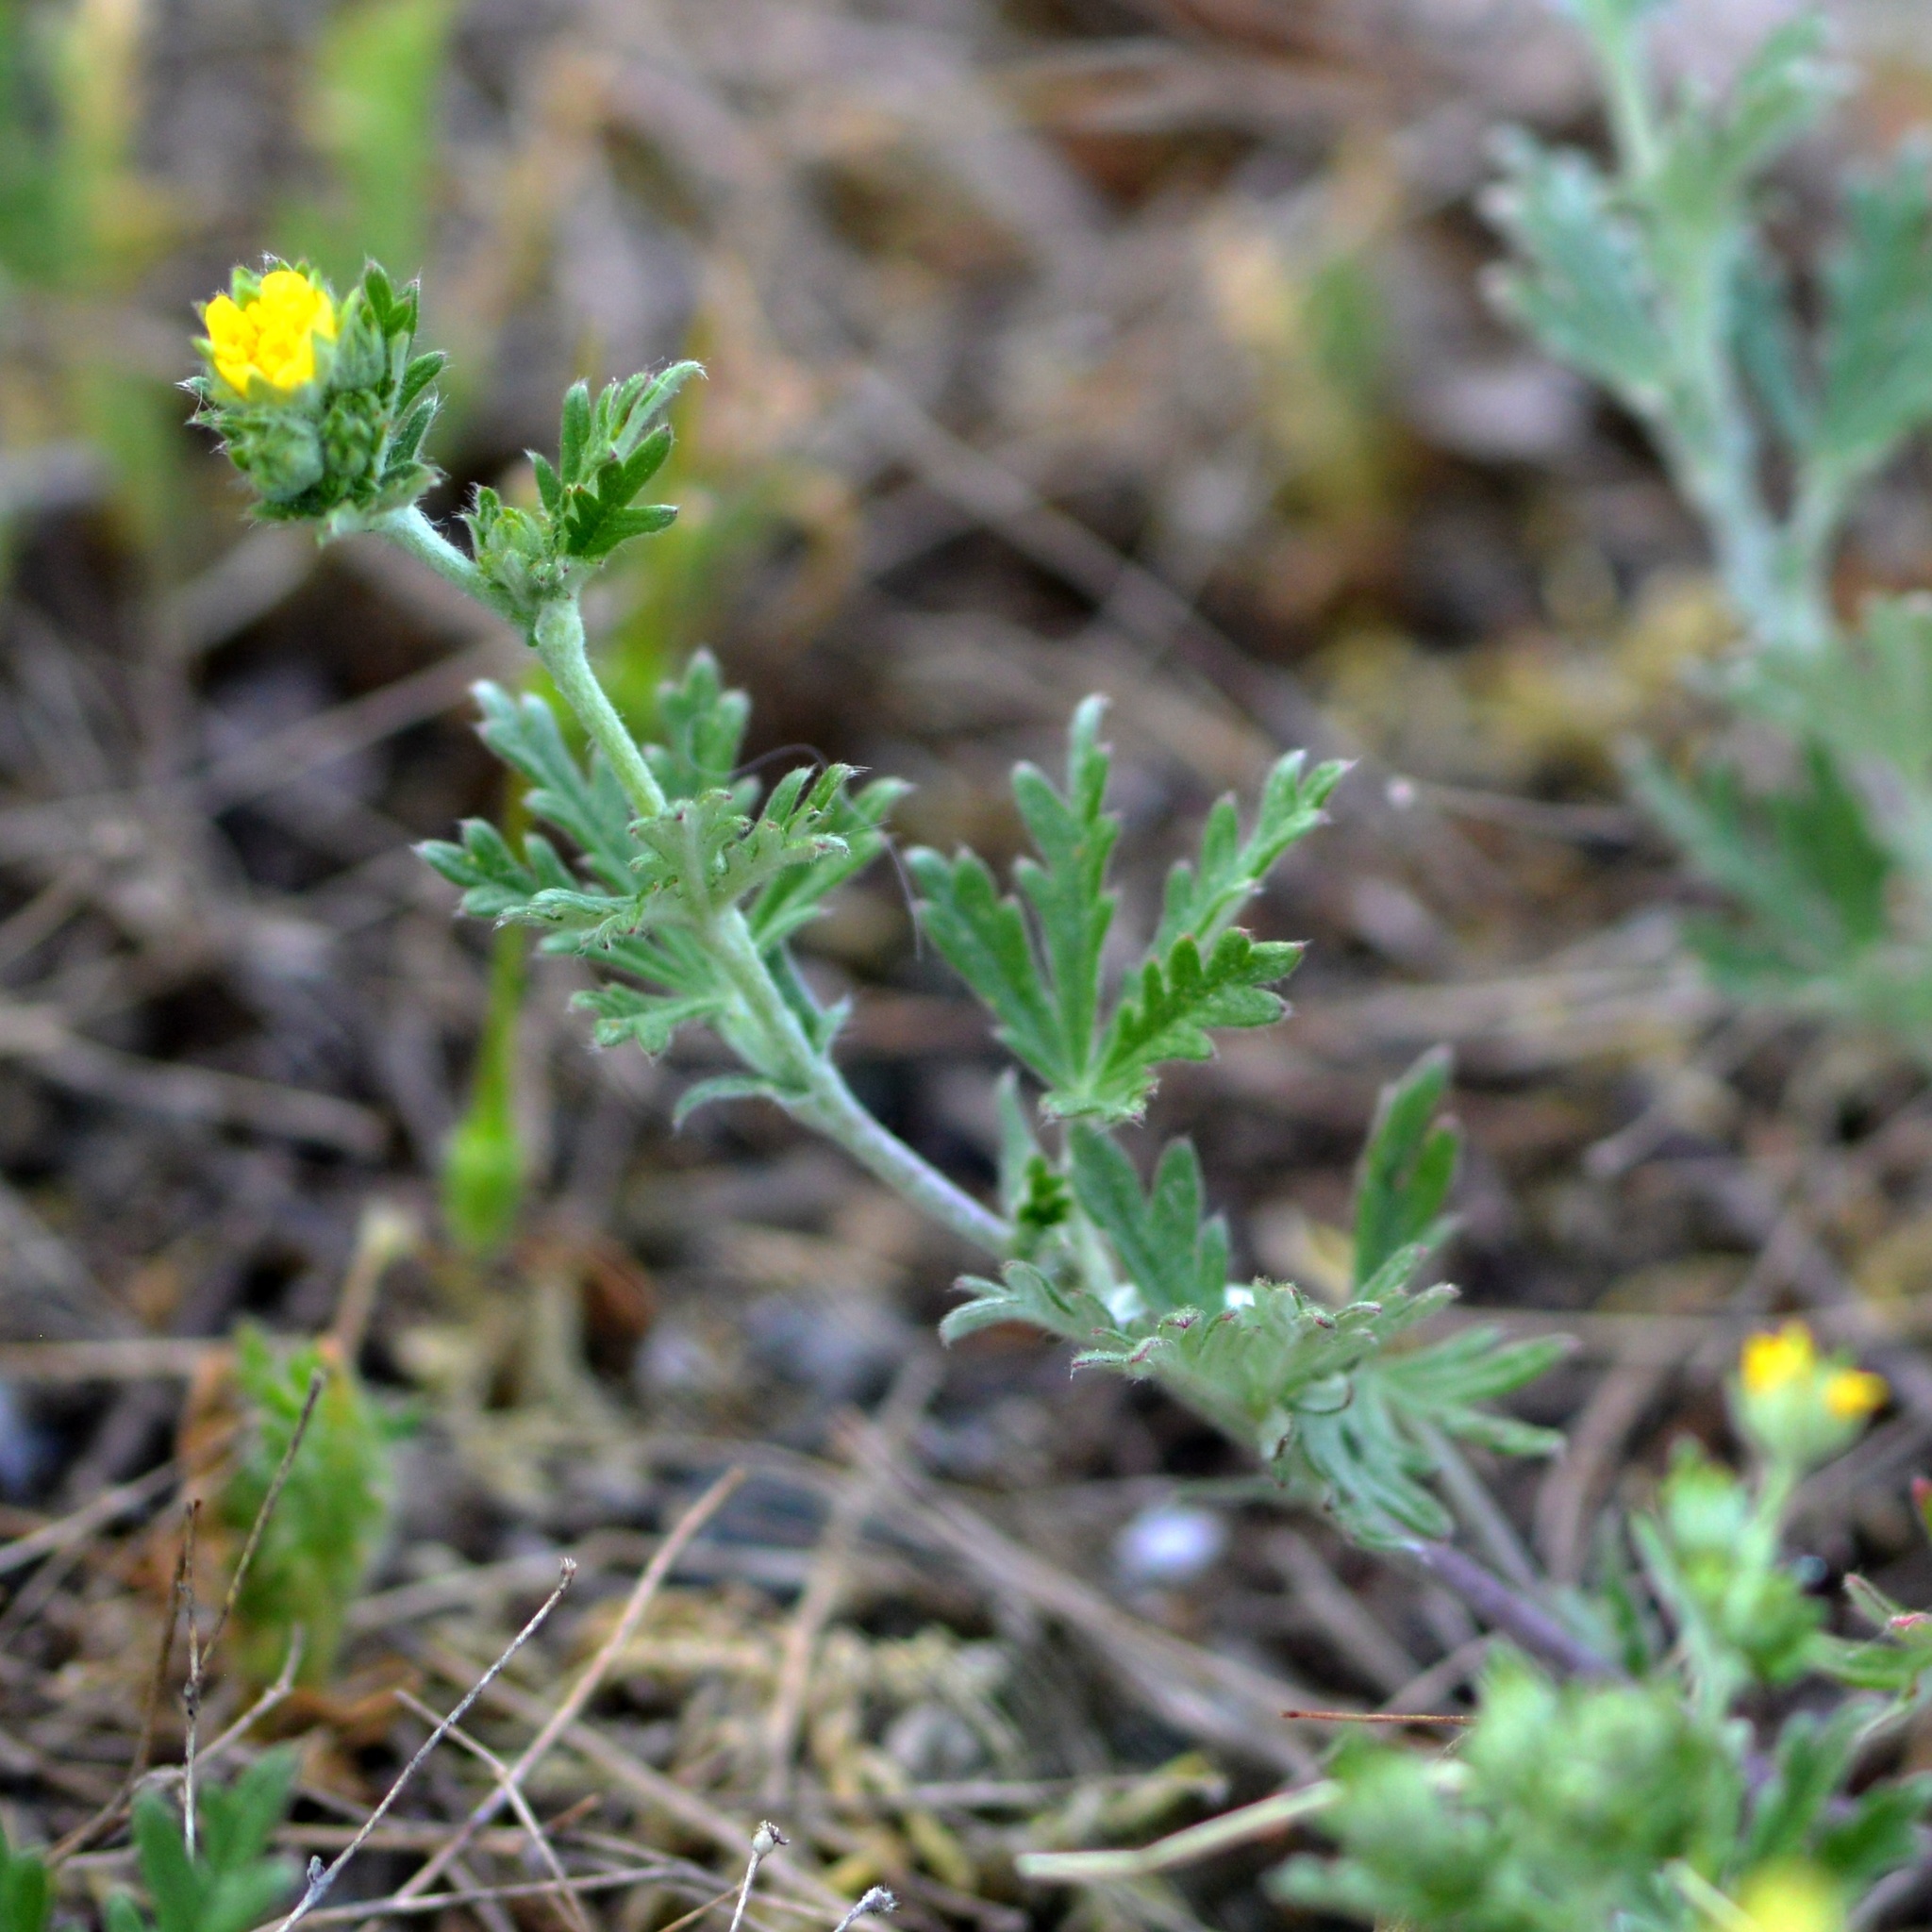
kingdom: Plantae
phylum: Tracheophyta
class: Magnoliopsida
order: Rosales
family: Rosaceae
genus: Potentilla
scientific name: Potentilla argentea
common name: Hoary cinquefoil
